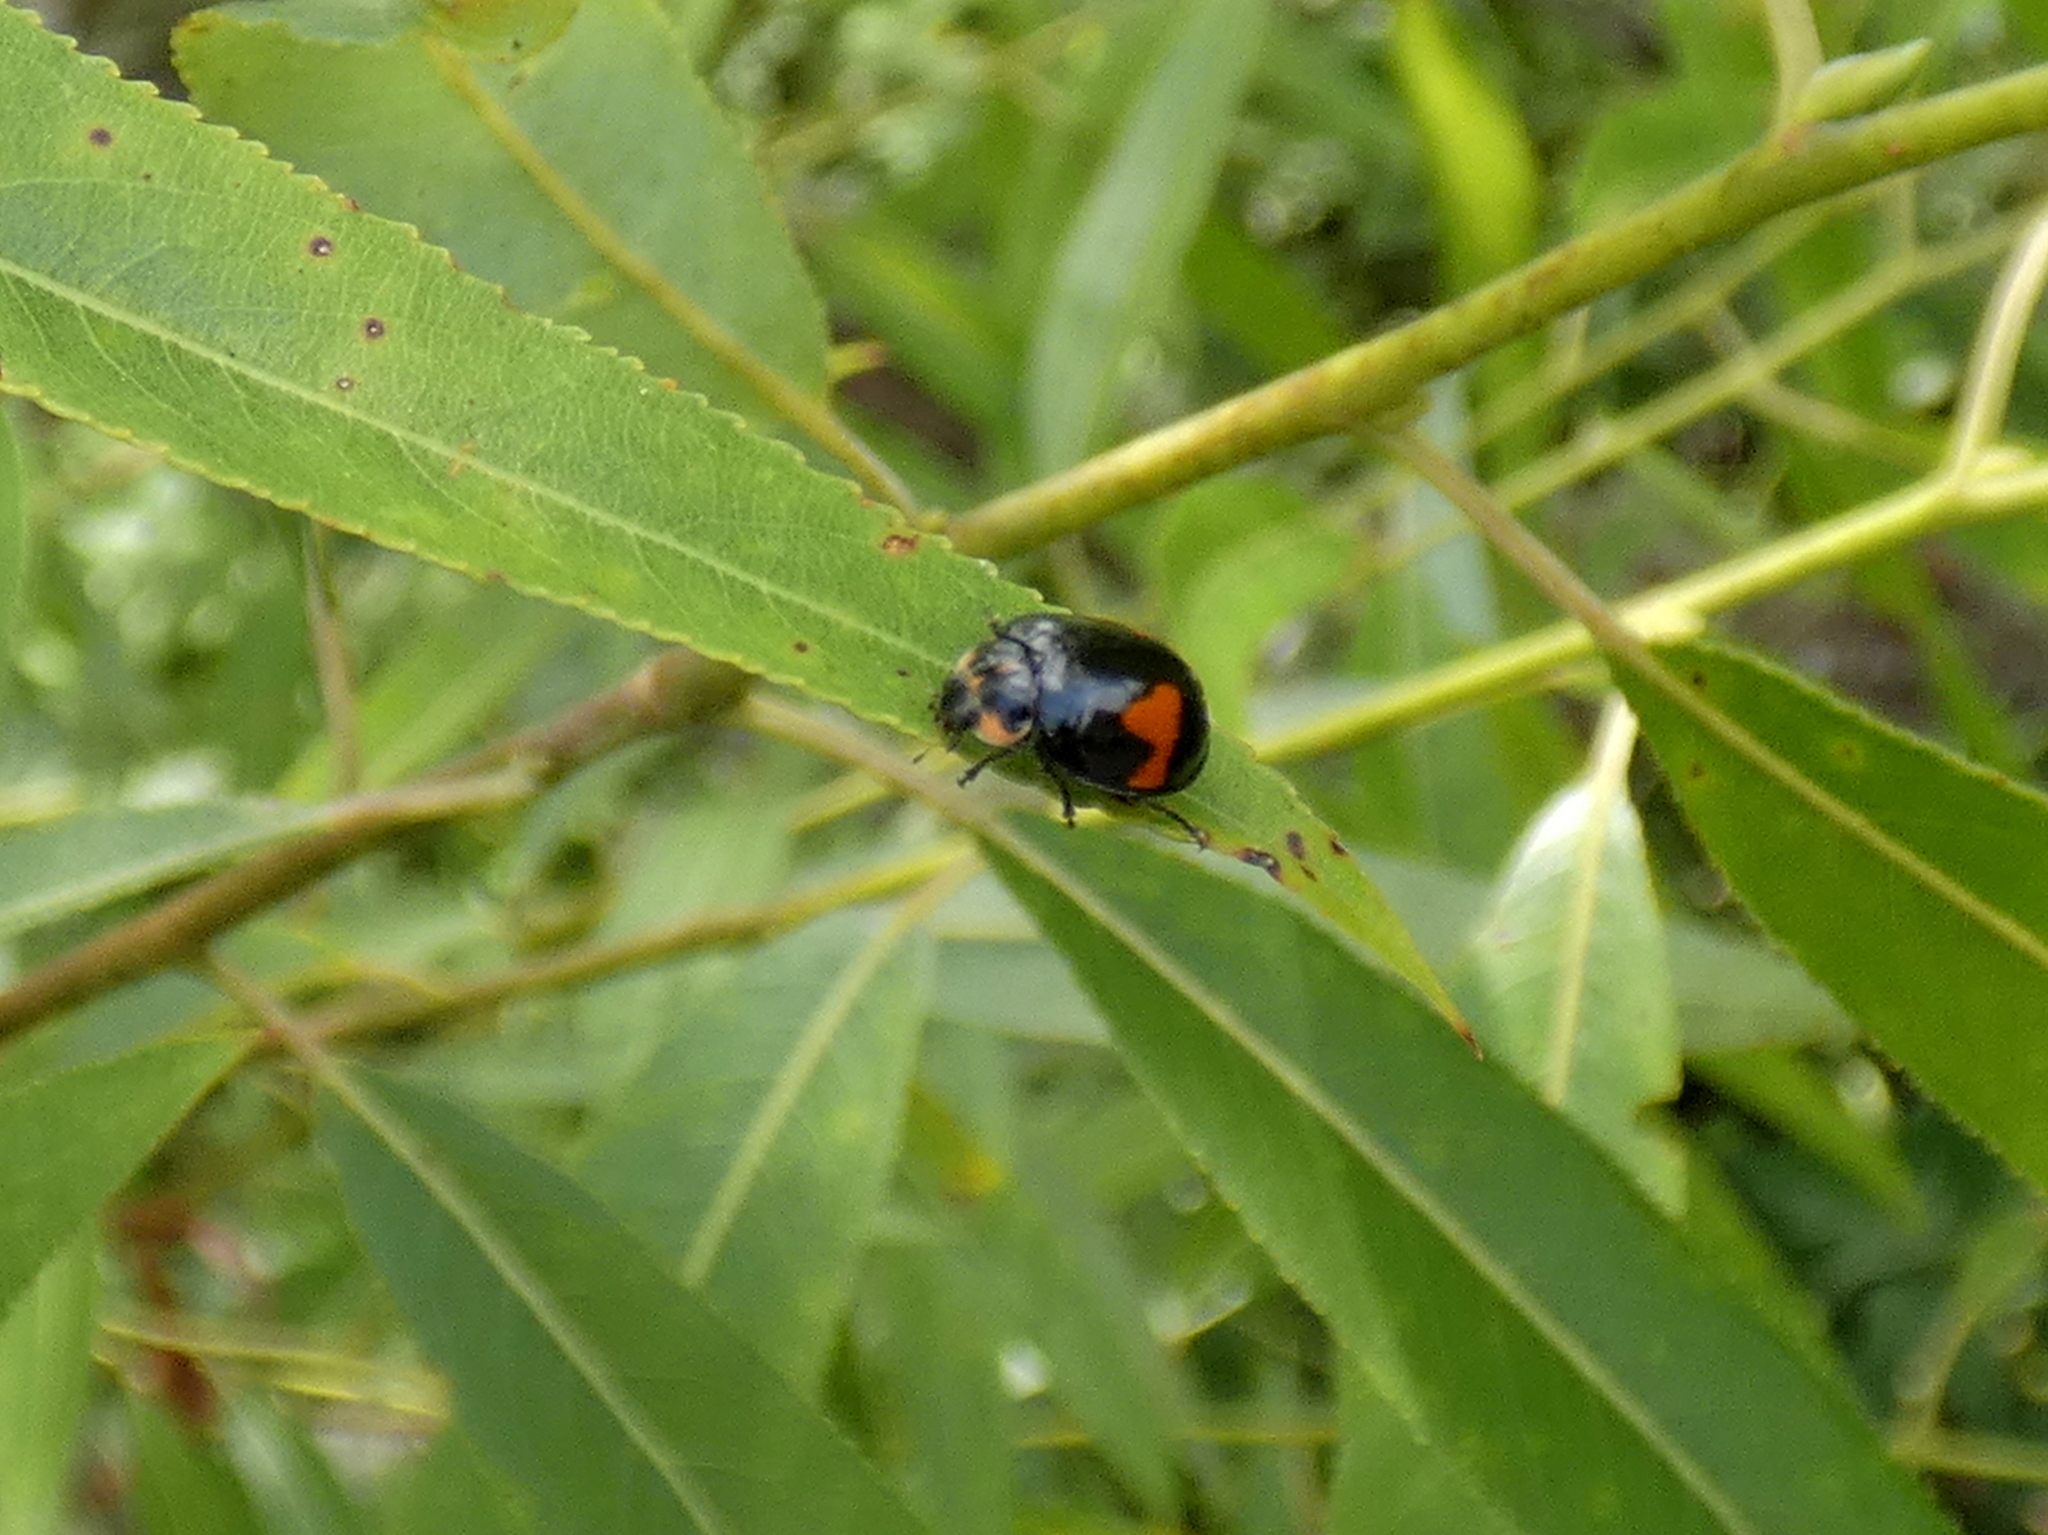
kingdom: Animalia
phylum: Arthropoda
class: Insecta
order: Coleoptera
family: Coccinellidae
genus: Neoharmonia
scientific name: Neoharmonia venusta
